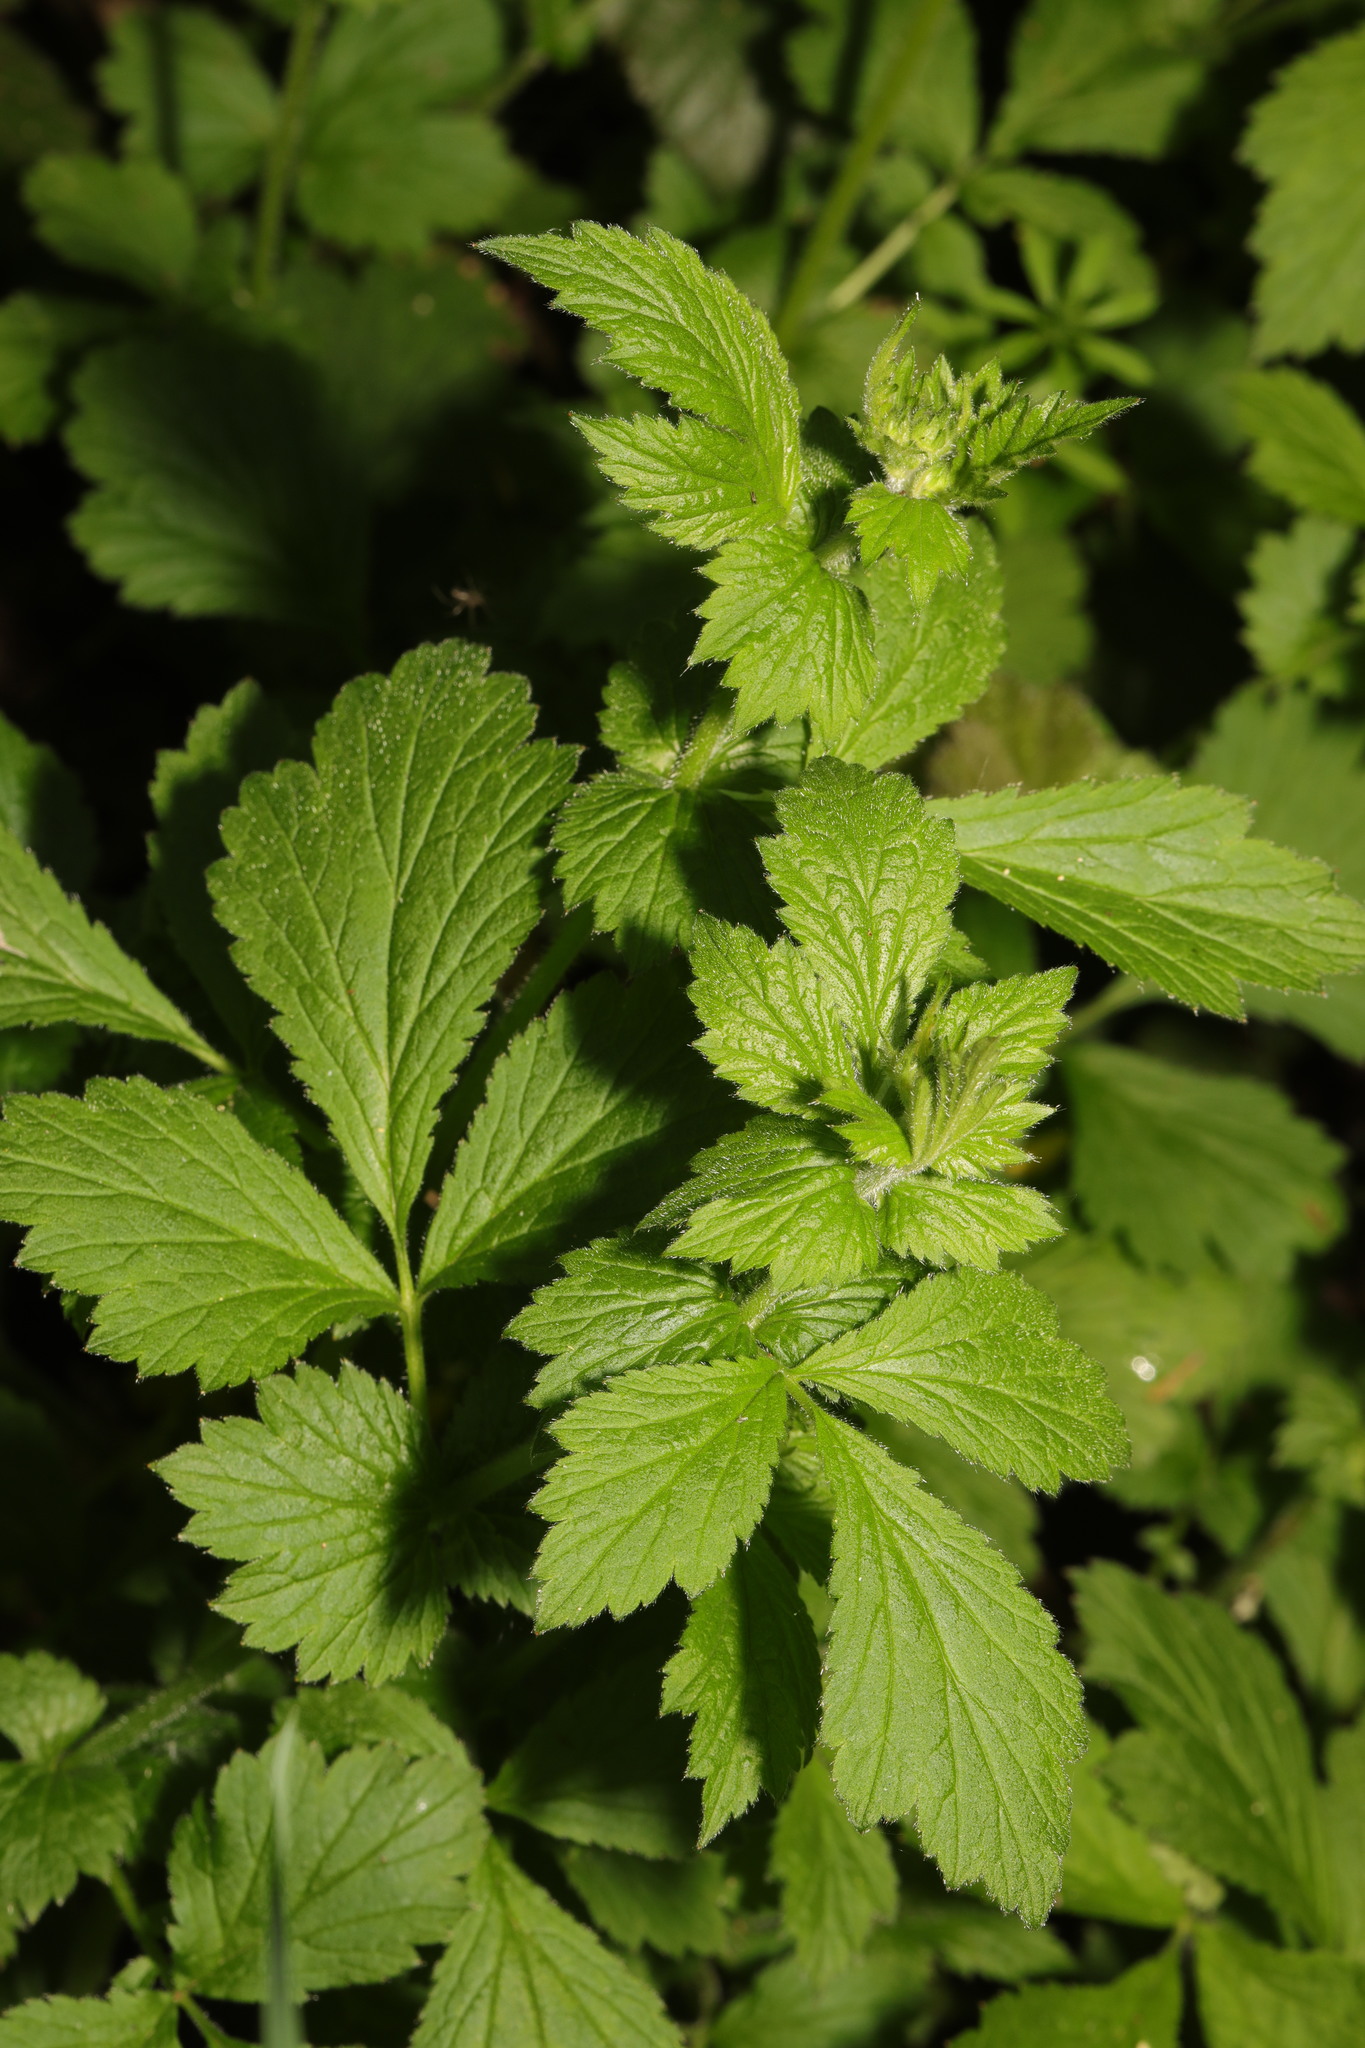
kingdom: Plantae
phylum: Tracheophyta
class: Magnoliopsida
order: Rosales
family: Rosaceae
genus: Geum
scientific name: Geum urbanum
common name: Wood avens
